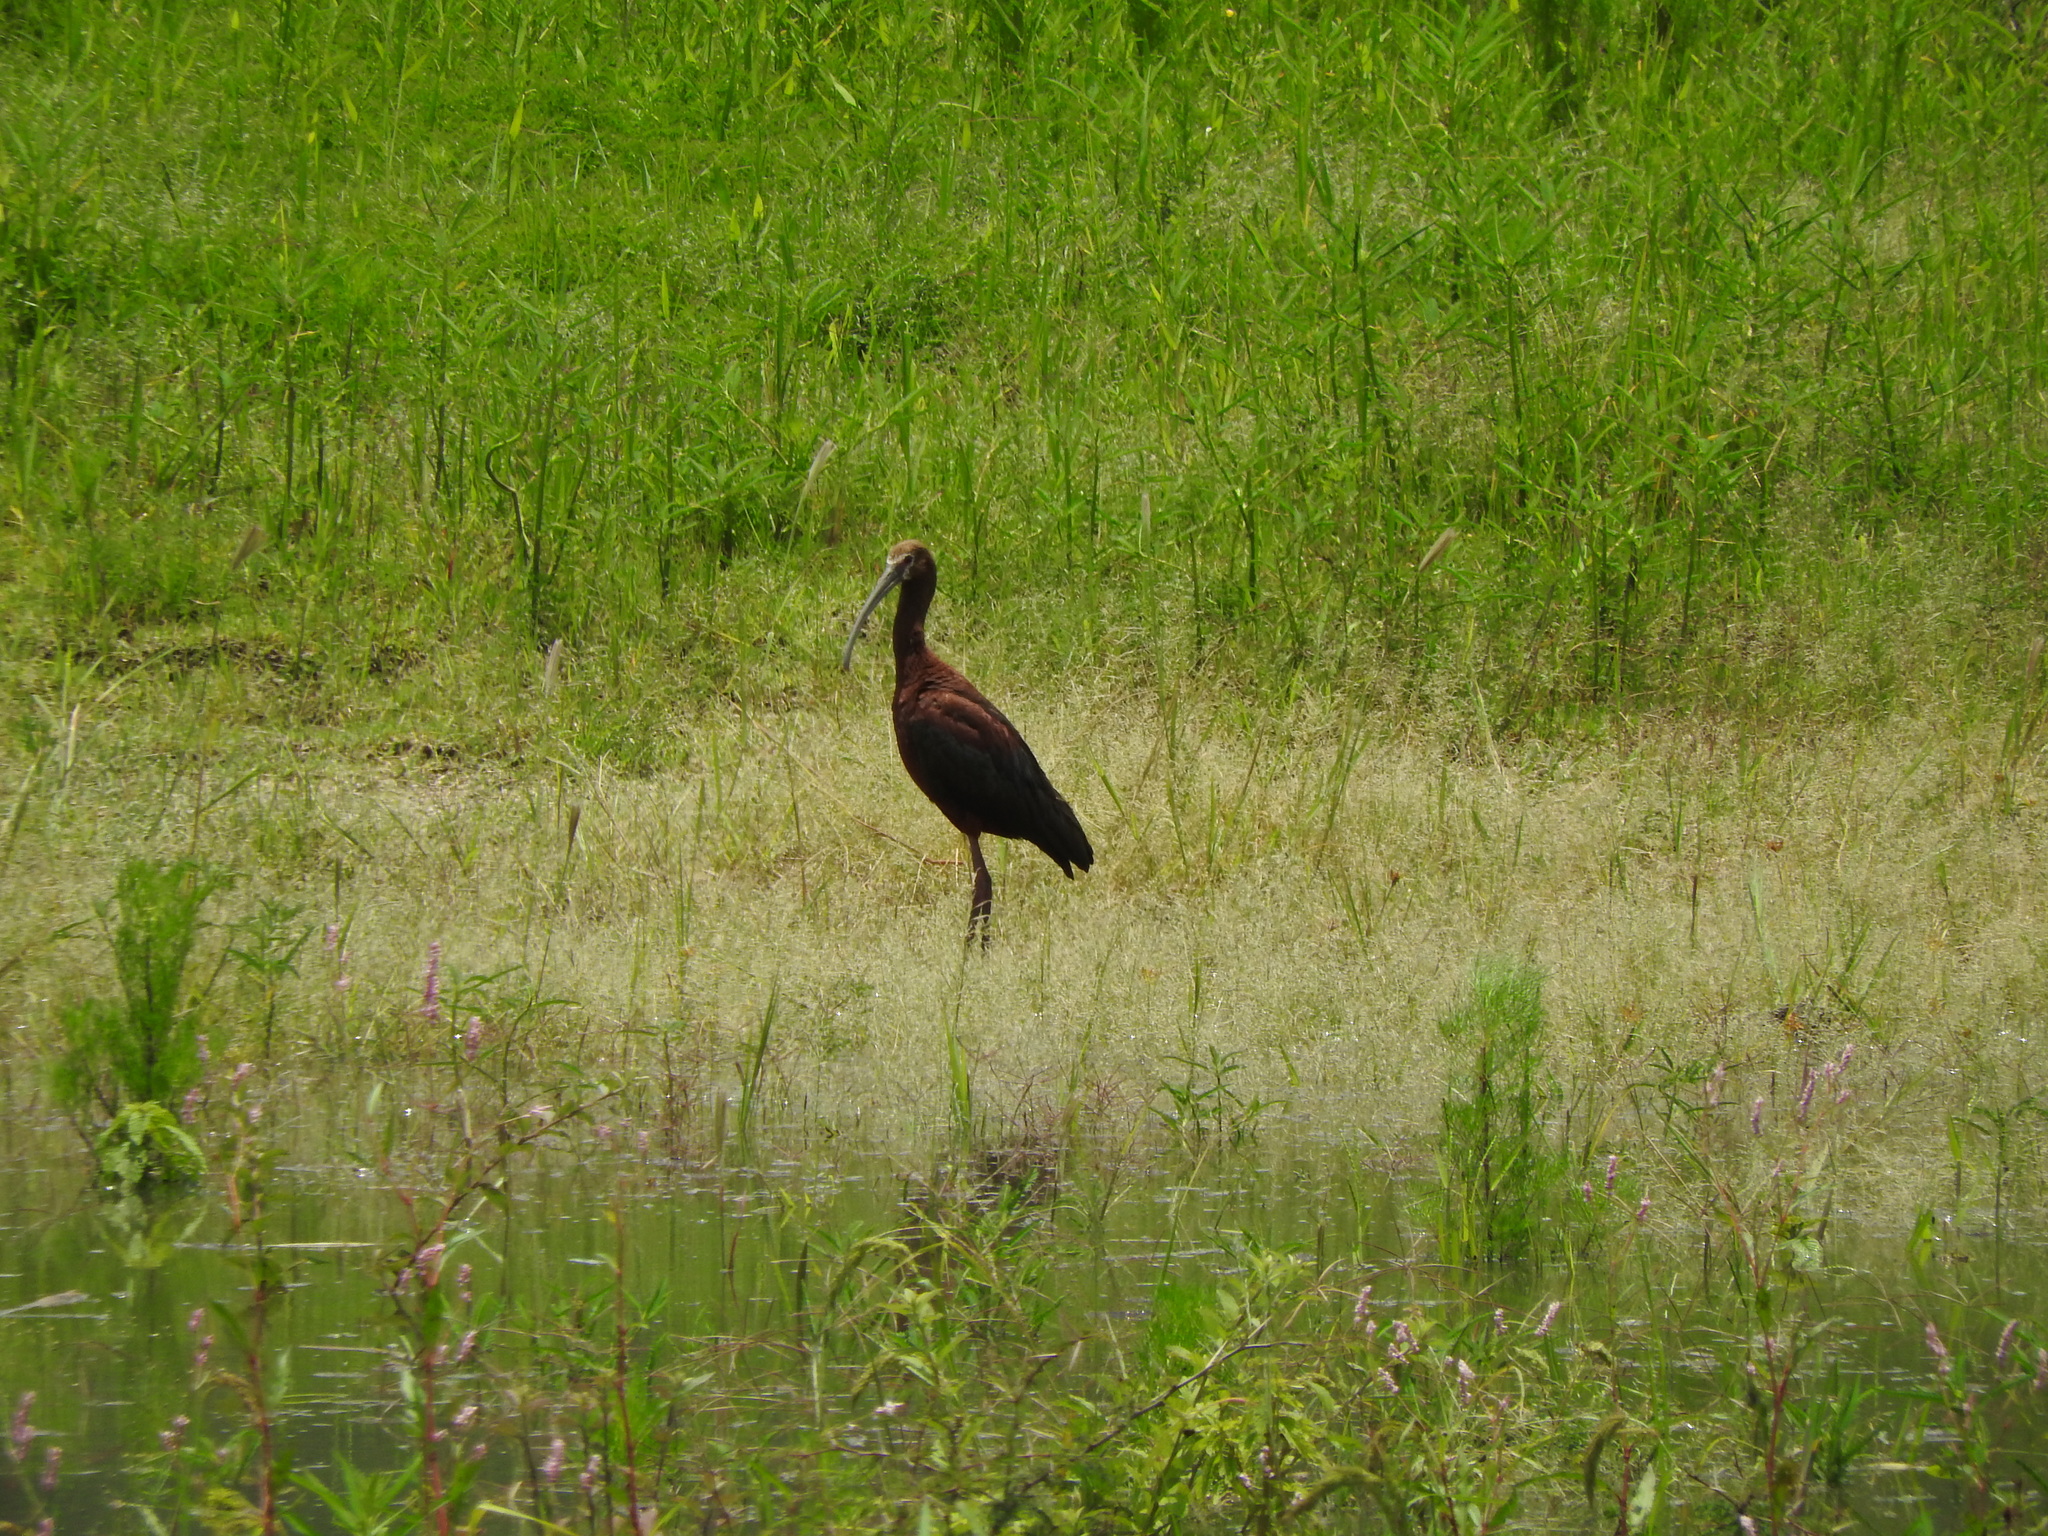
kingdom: Animalia
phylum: Chordata
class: Aves
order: Pelecaniformes
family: Threskiornithidae
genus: Plegadis
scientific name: Plegadis chihi
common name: White-faced ibis
